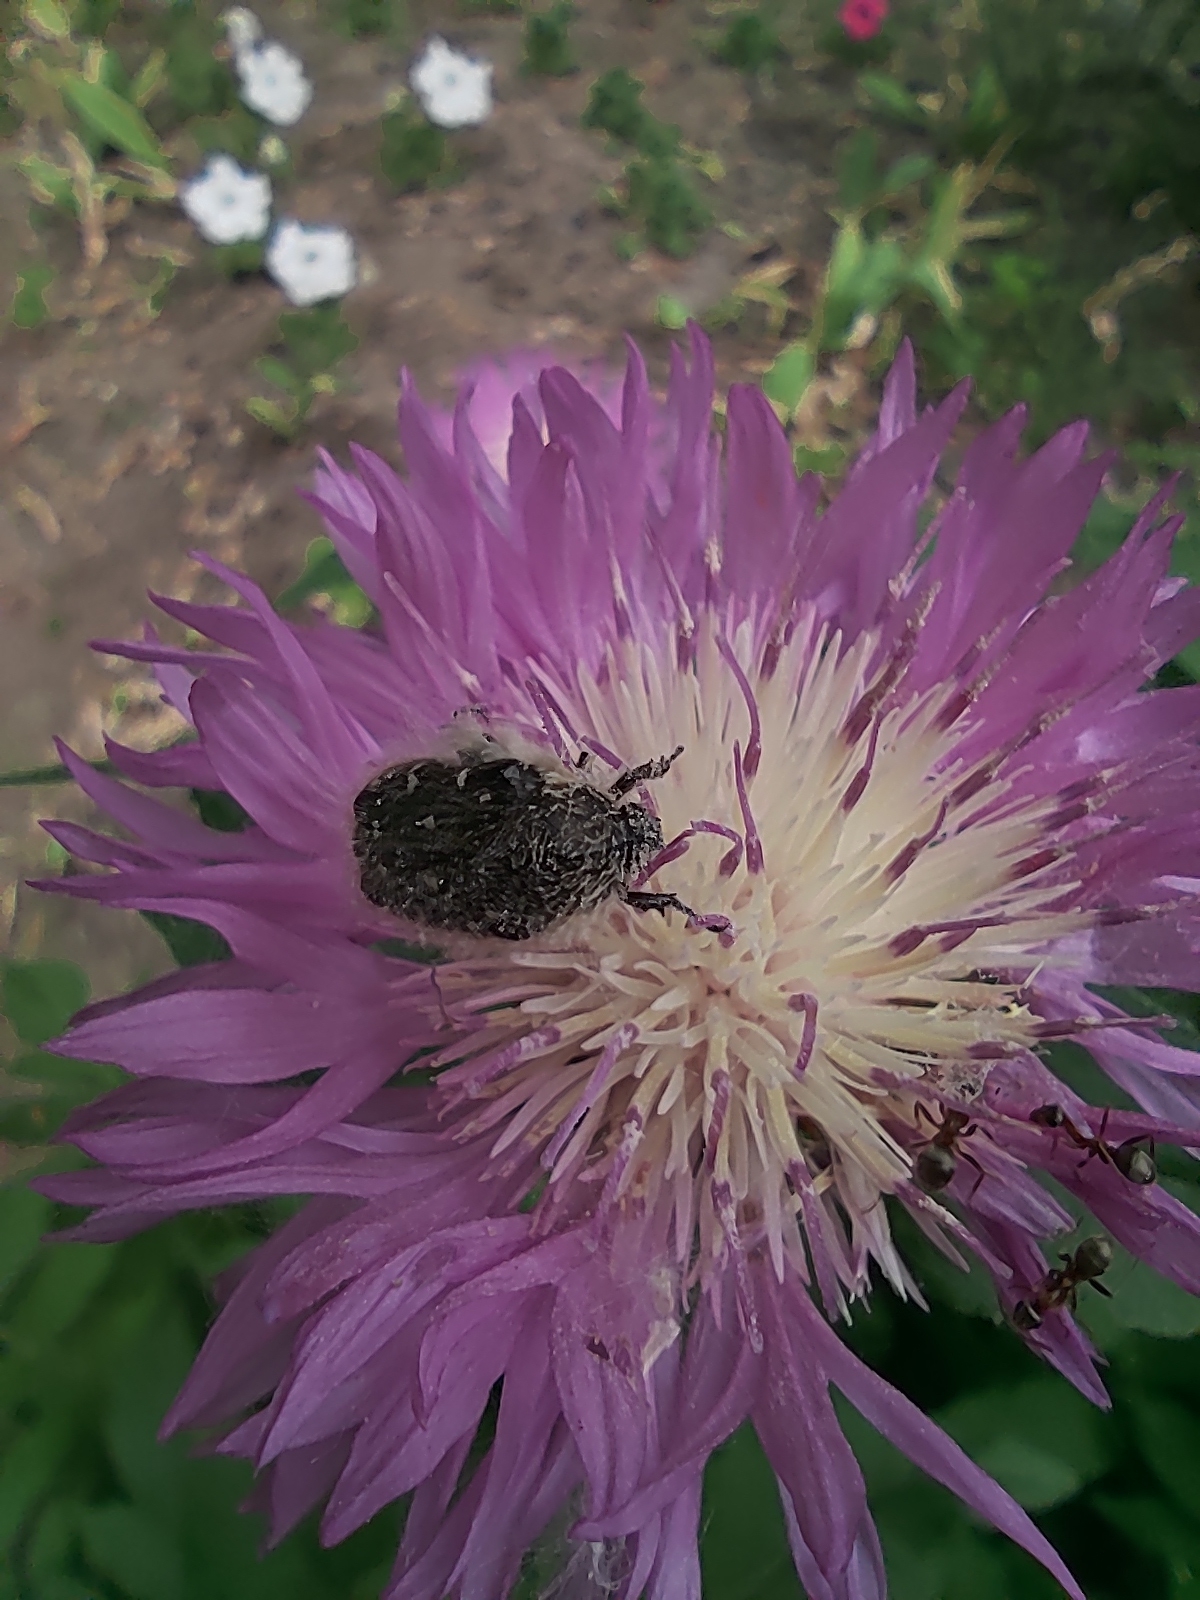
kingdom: Animalia
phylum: Arthropoda
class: Insecta
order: Coleoptera
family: Scarabaeidae
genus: Tropinota
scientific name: Tropinota hirta
